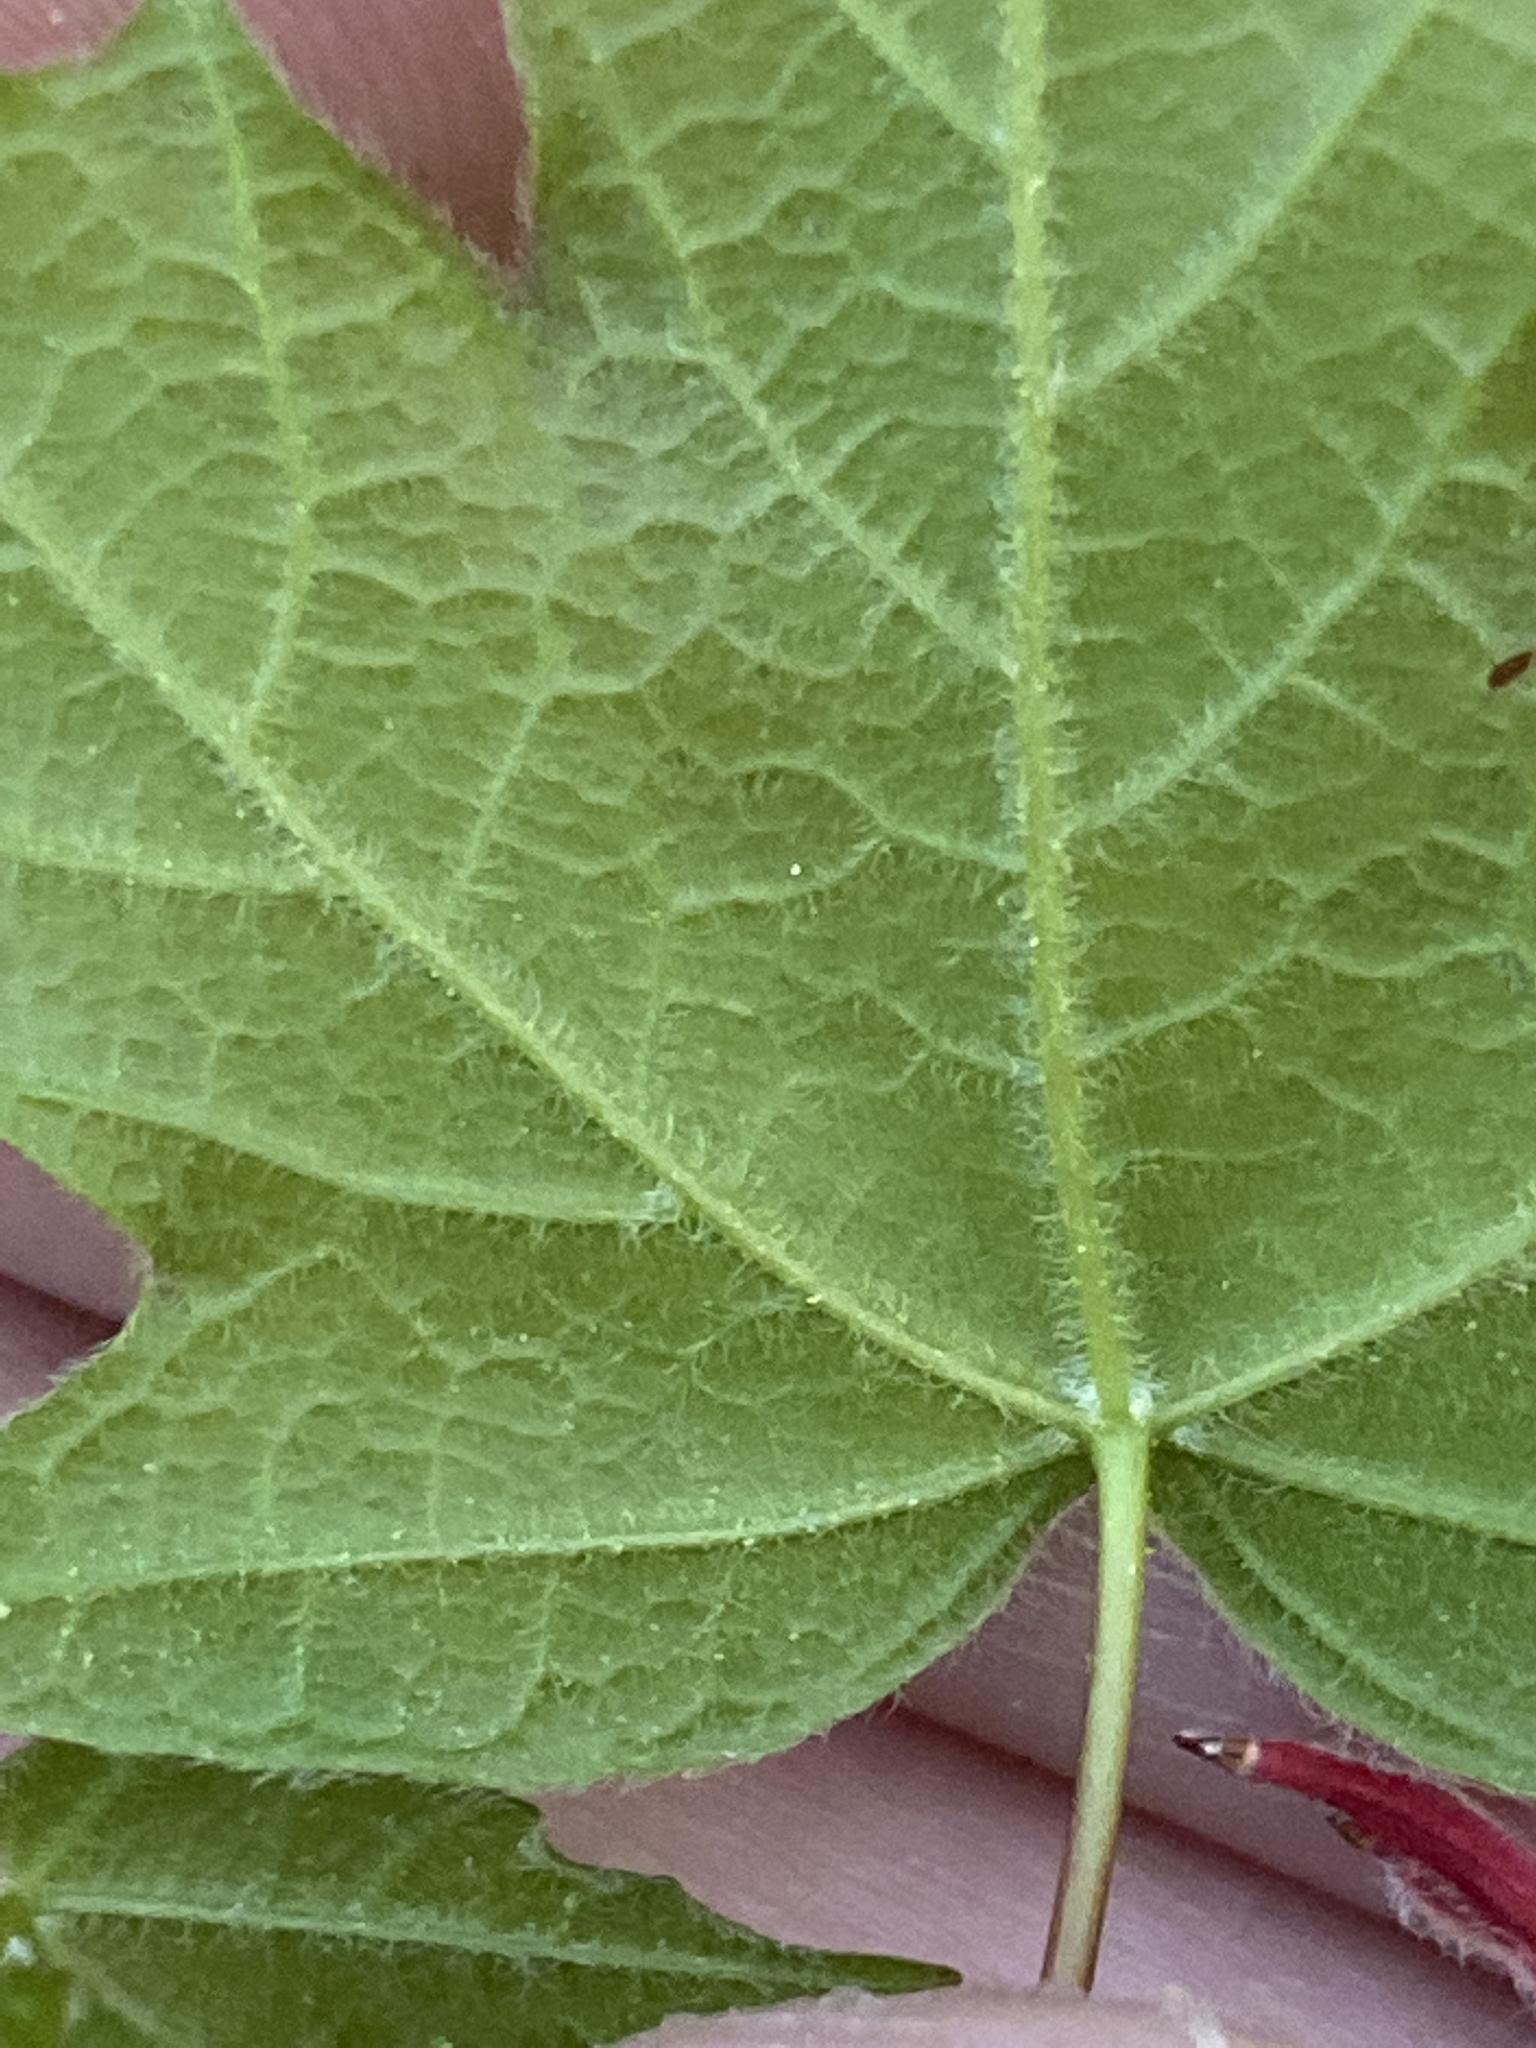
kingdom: Plantae
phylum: Tracheophyta
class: Magnoliopsida
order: Sapindales
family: Sapindaceae
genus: Acer
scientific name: Acer floridanum
